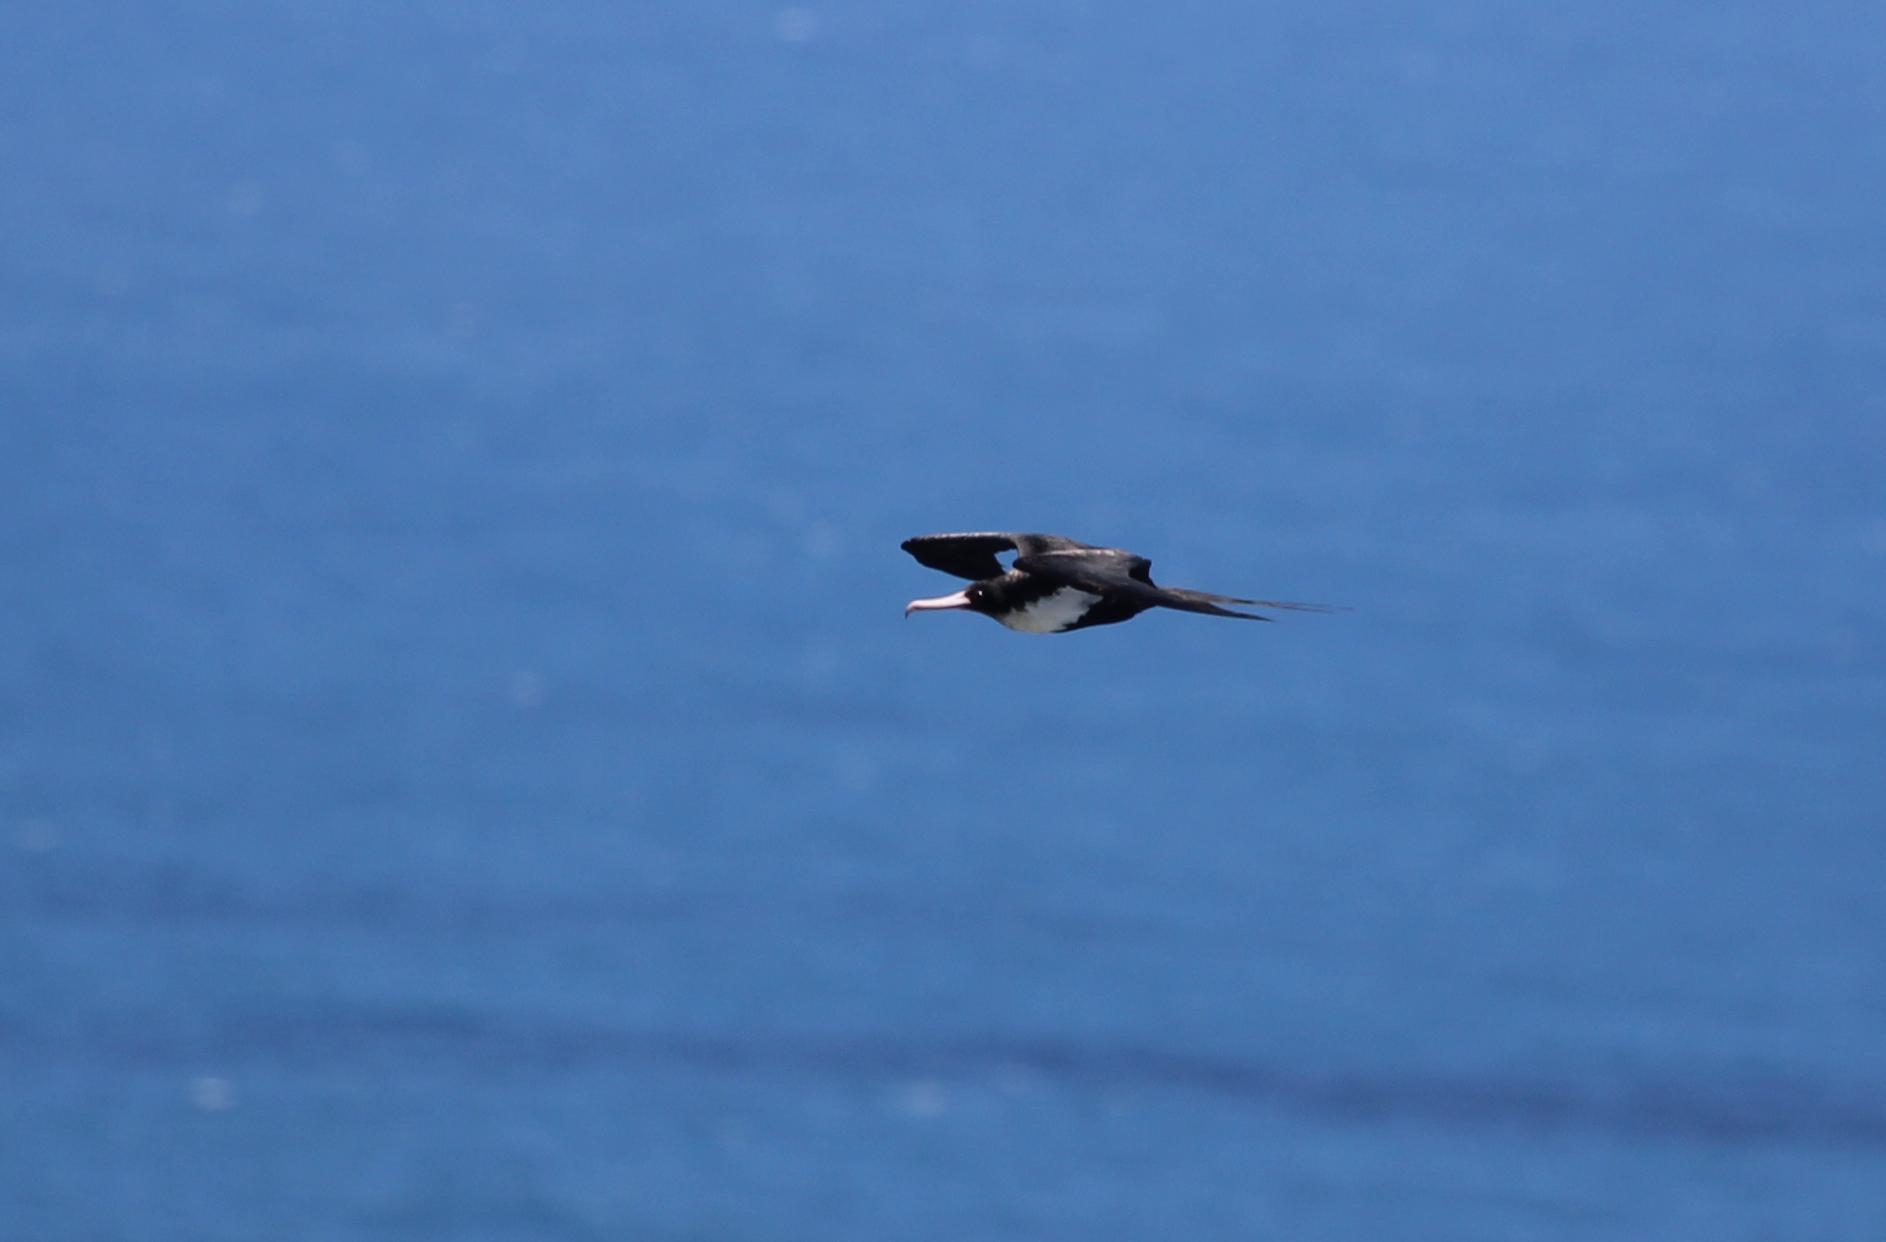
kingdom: Animalia
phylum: Chordata
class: Aves
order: Suliformes
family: Fregatidae
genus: Fregata
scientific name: Fregata minor
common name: Great frigatebird
